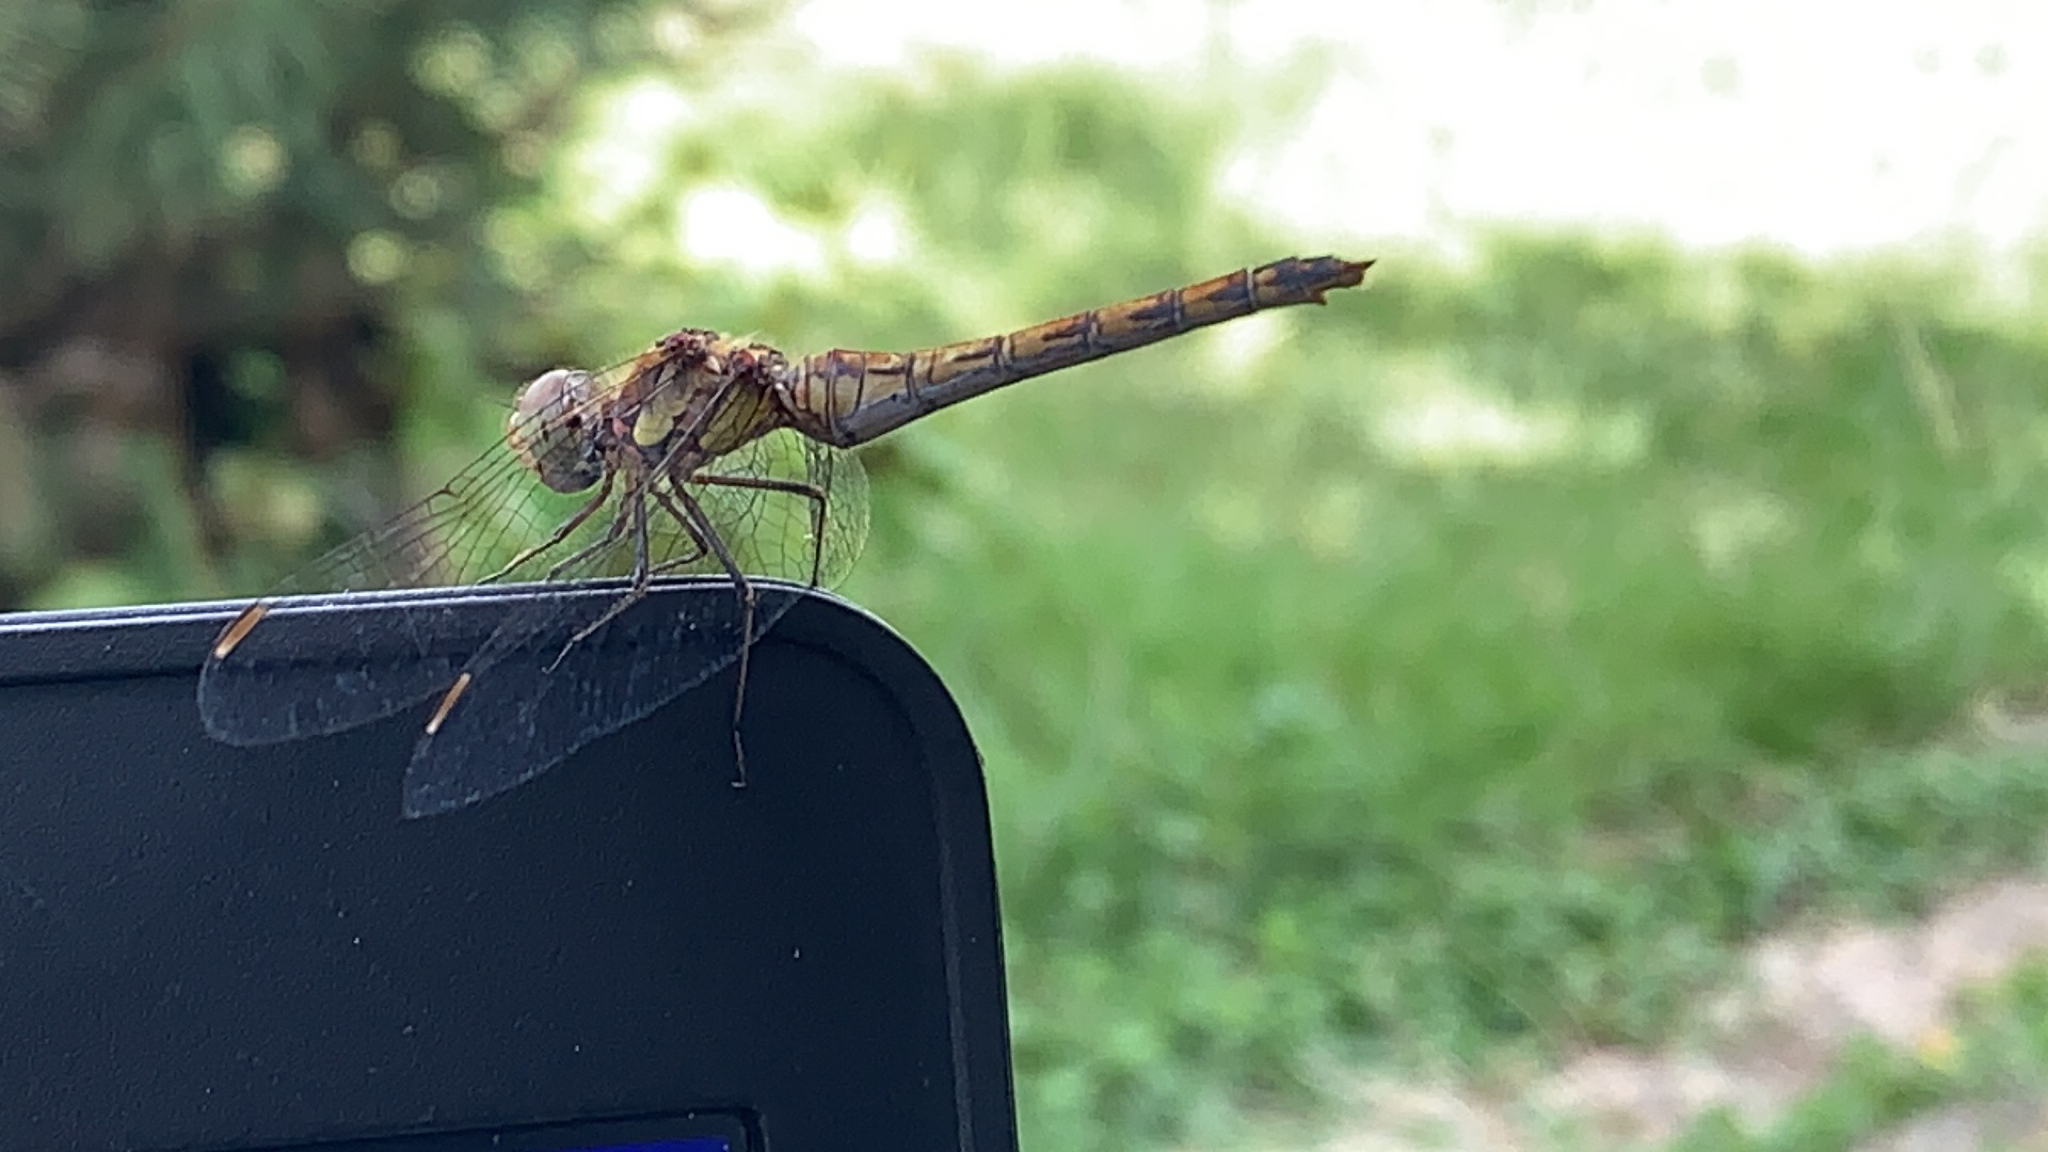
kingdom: Animalia
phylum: Arthropoda
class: Insecta
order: Odonata
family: Libellulidae
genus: Sympetrum
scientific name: Sympetrum striolatum
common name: Common darter
